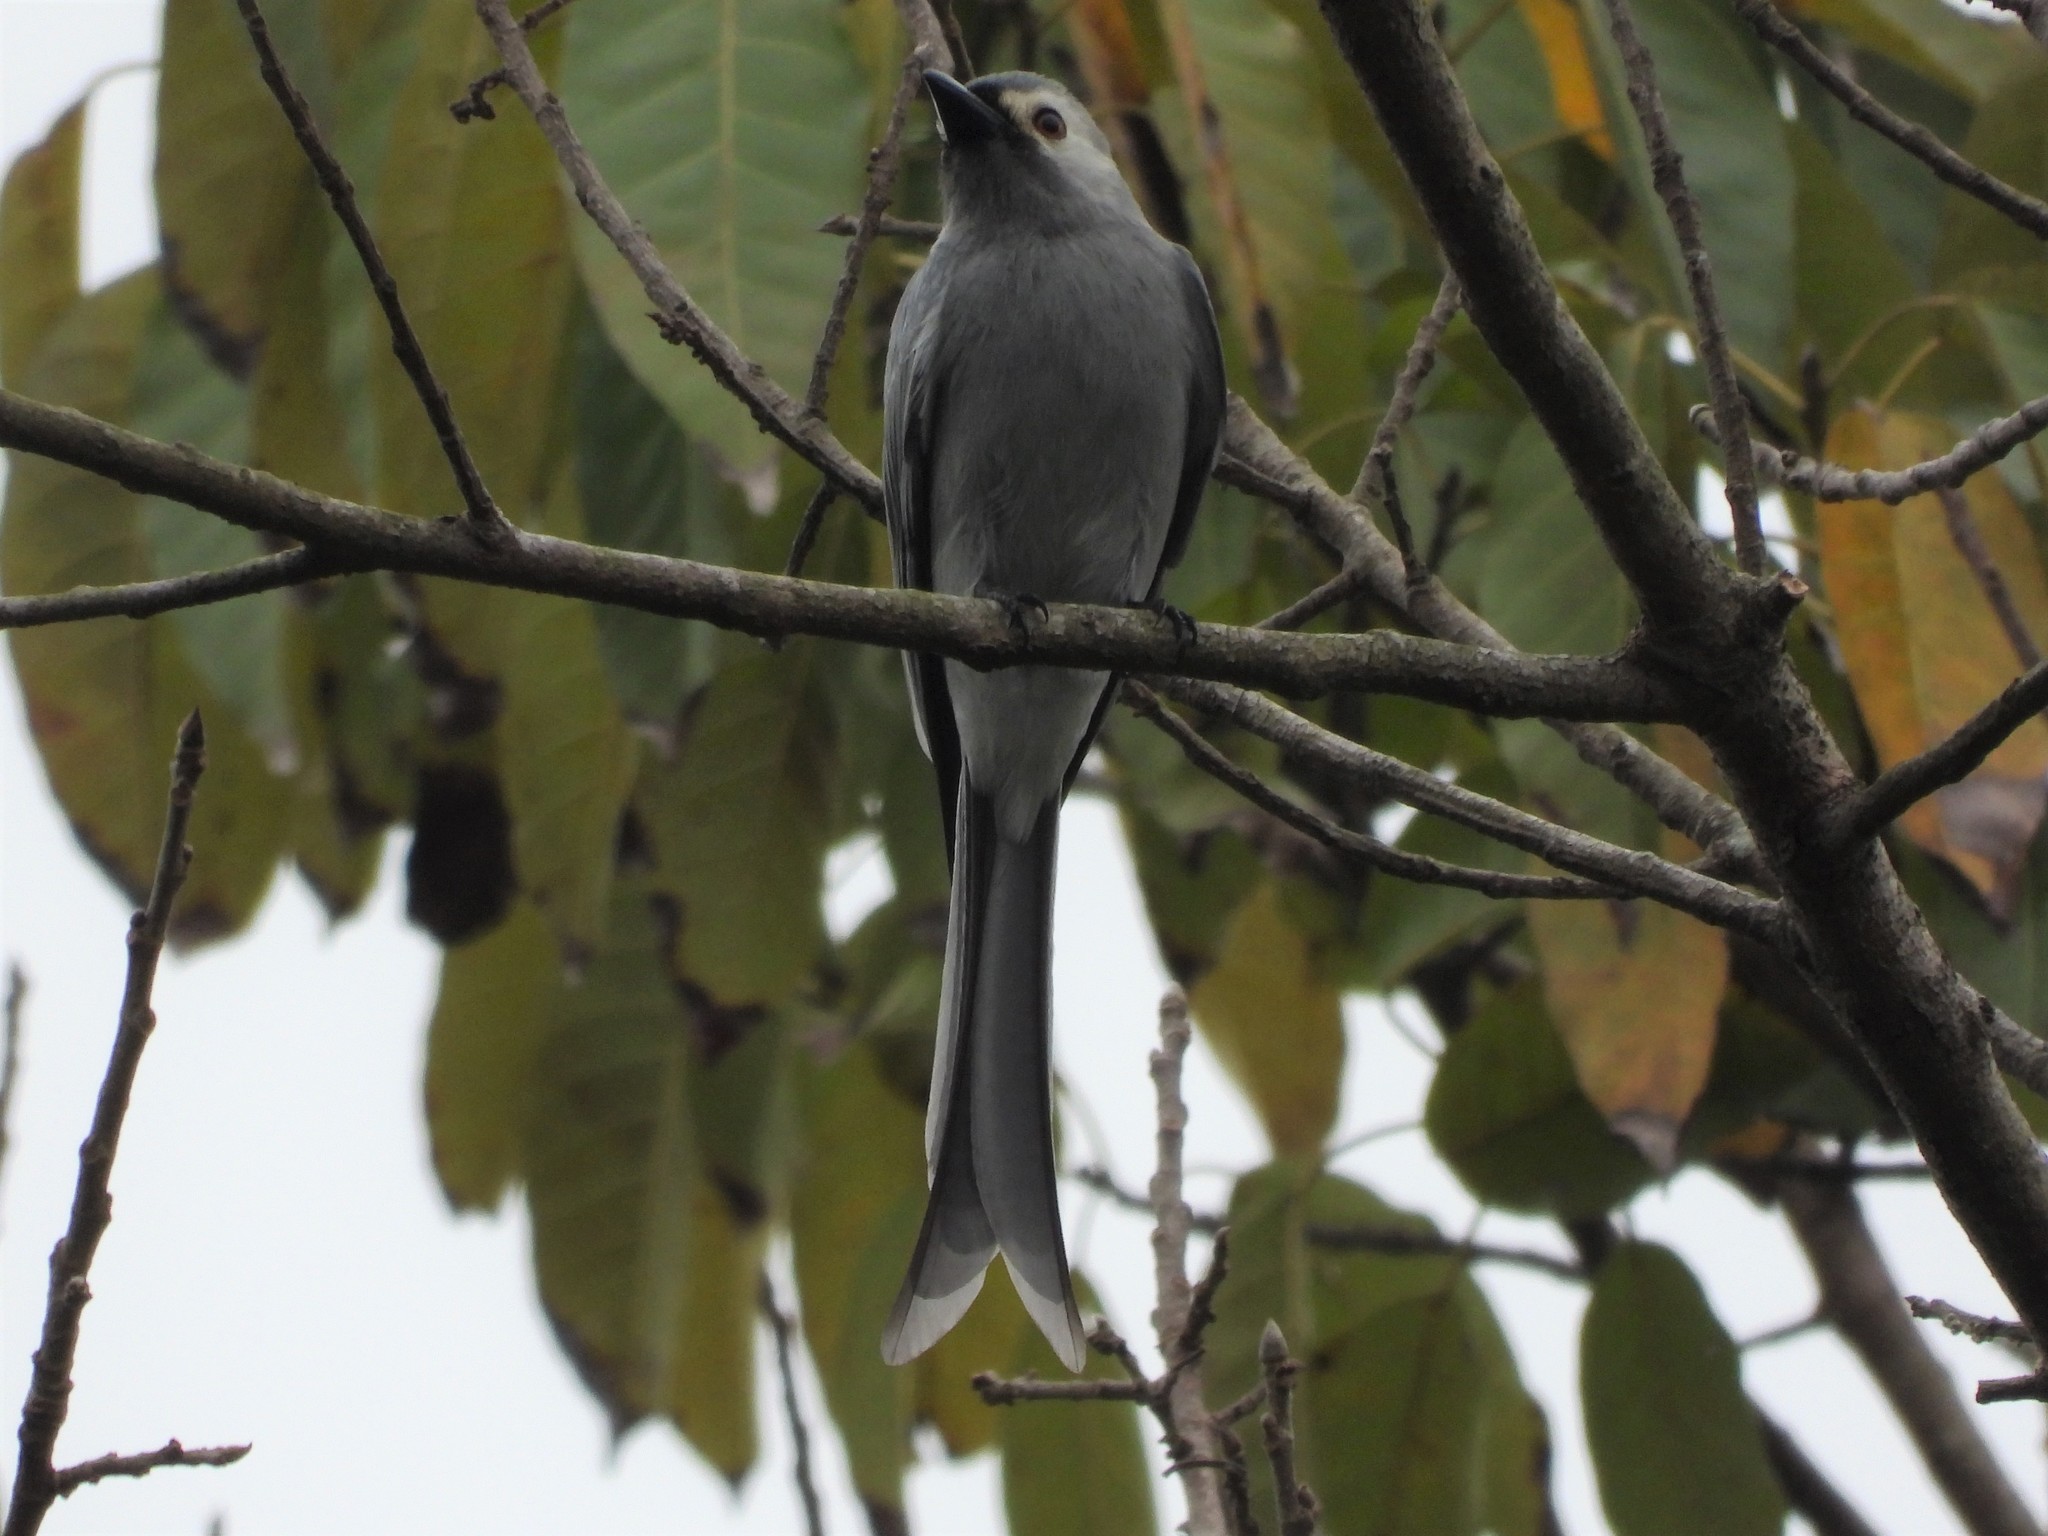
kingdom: Animalia
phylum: Chordata
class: Aves
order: Passeriformes
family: Dicruridae
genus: Dicrurus
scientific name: Dicrurus leucophaeus
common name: Ashy drongo
